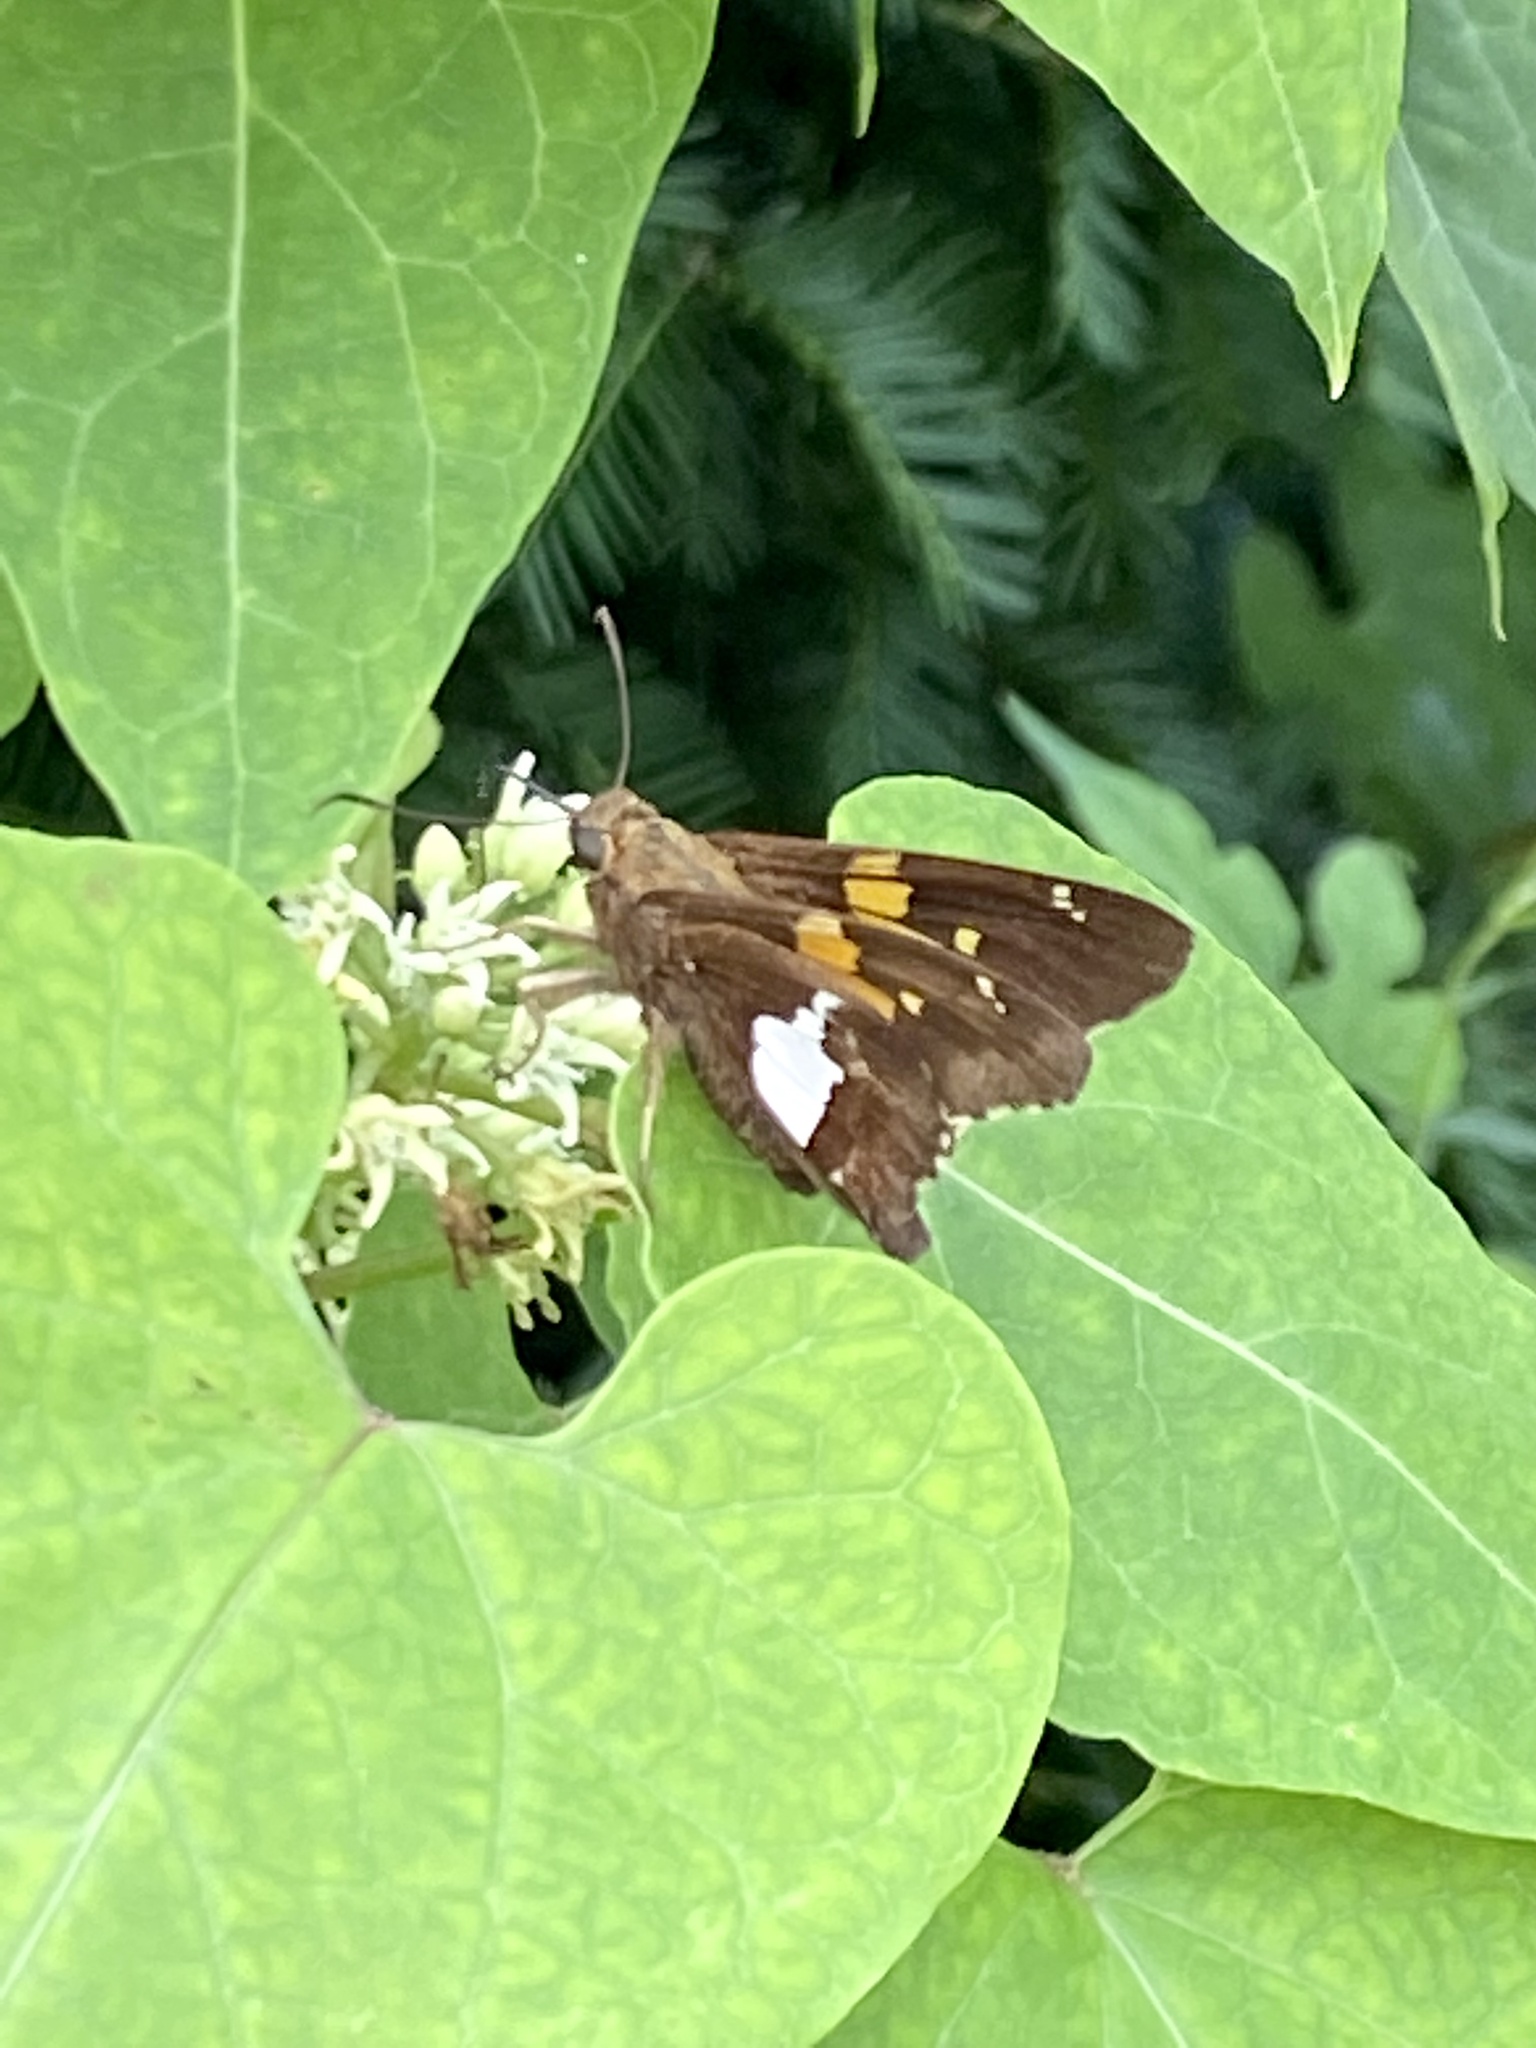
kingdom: Animalia
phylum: Arthropoda
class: Insecta
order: Lepidoptera
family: Hesperiidae
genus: Epargyreus
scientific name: Epargyreus clarus
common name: Silver-spotted skipper
